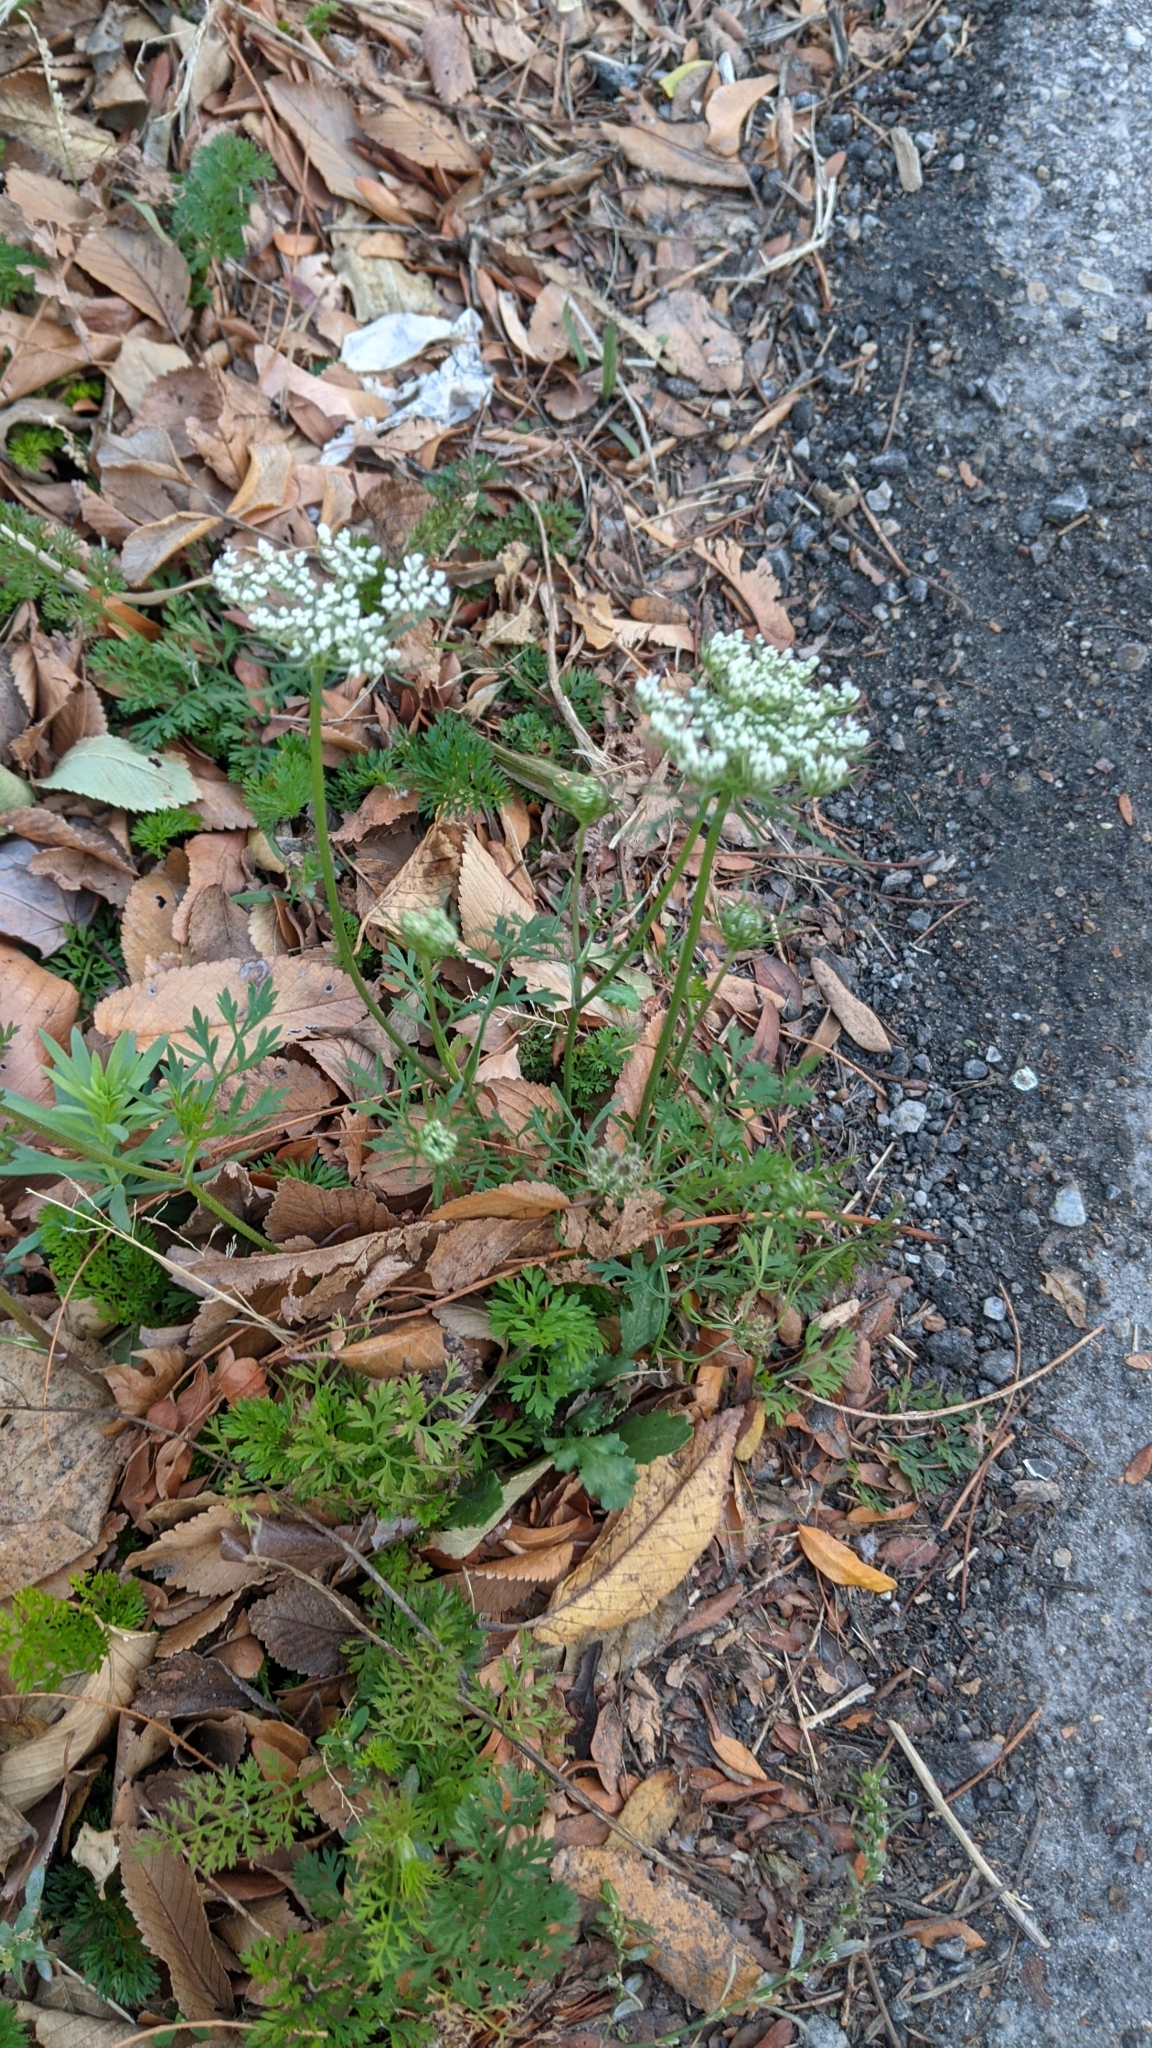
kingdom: Plantae
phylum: Tracheophyta
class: Magnoliopsida
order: Apiales
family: Apiaceae
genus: Daucus
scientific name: Daucus carota
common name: Wild carrot
